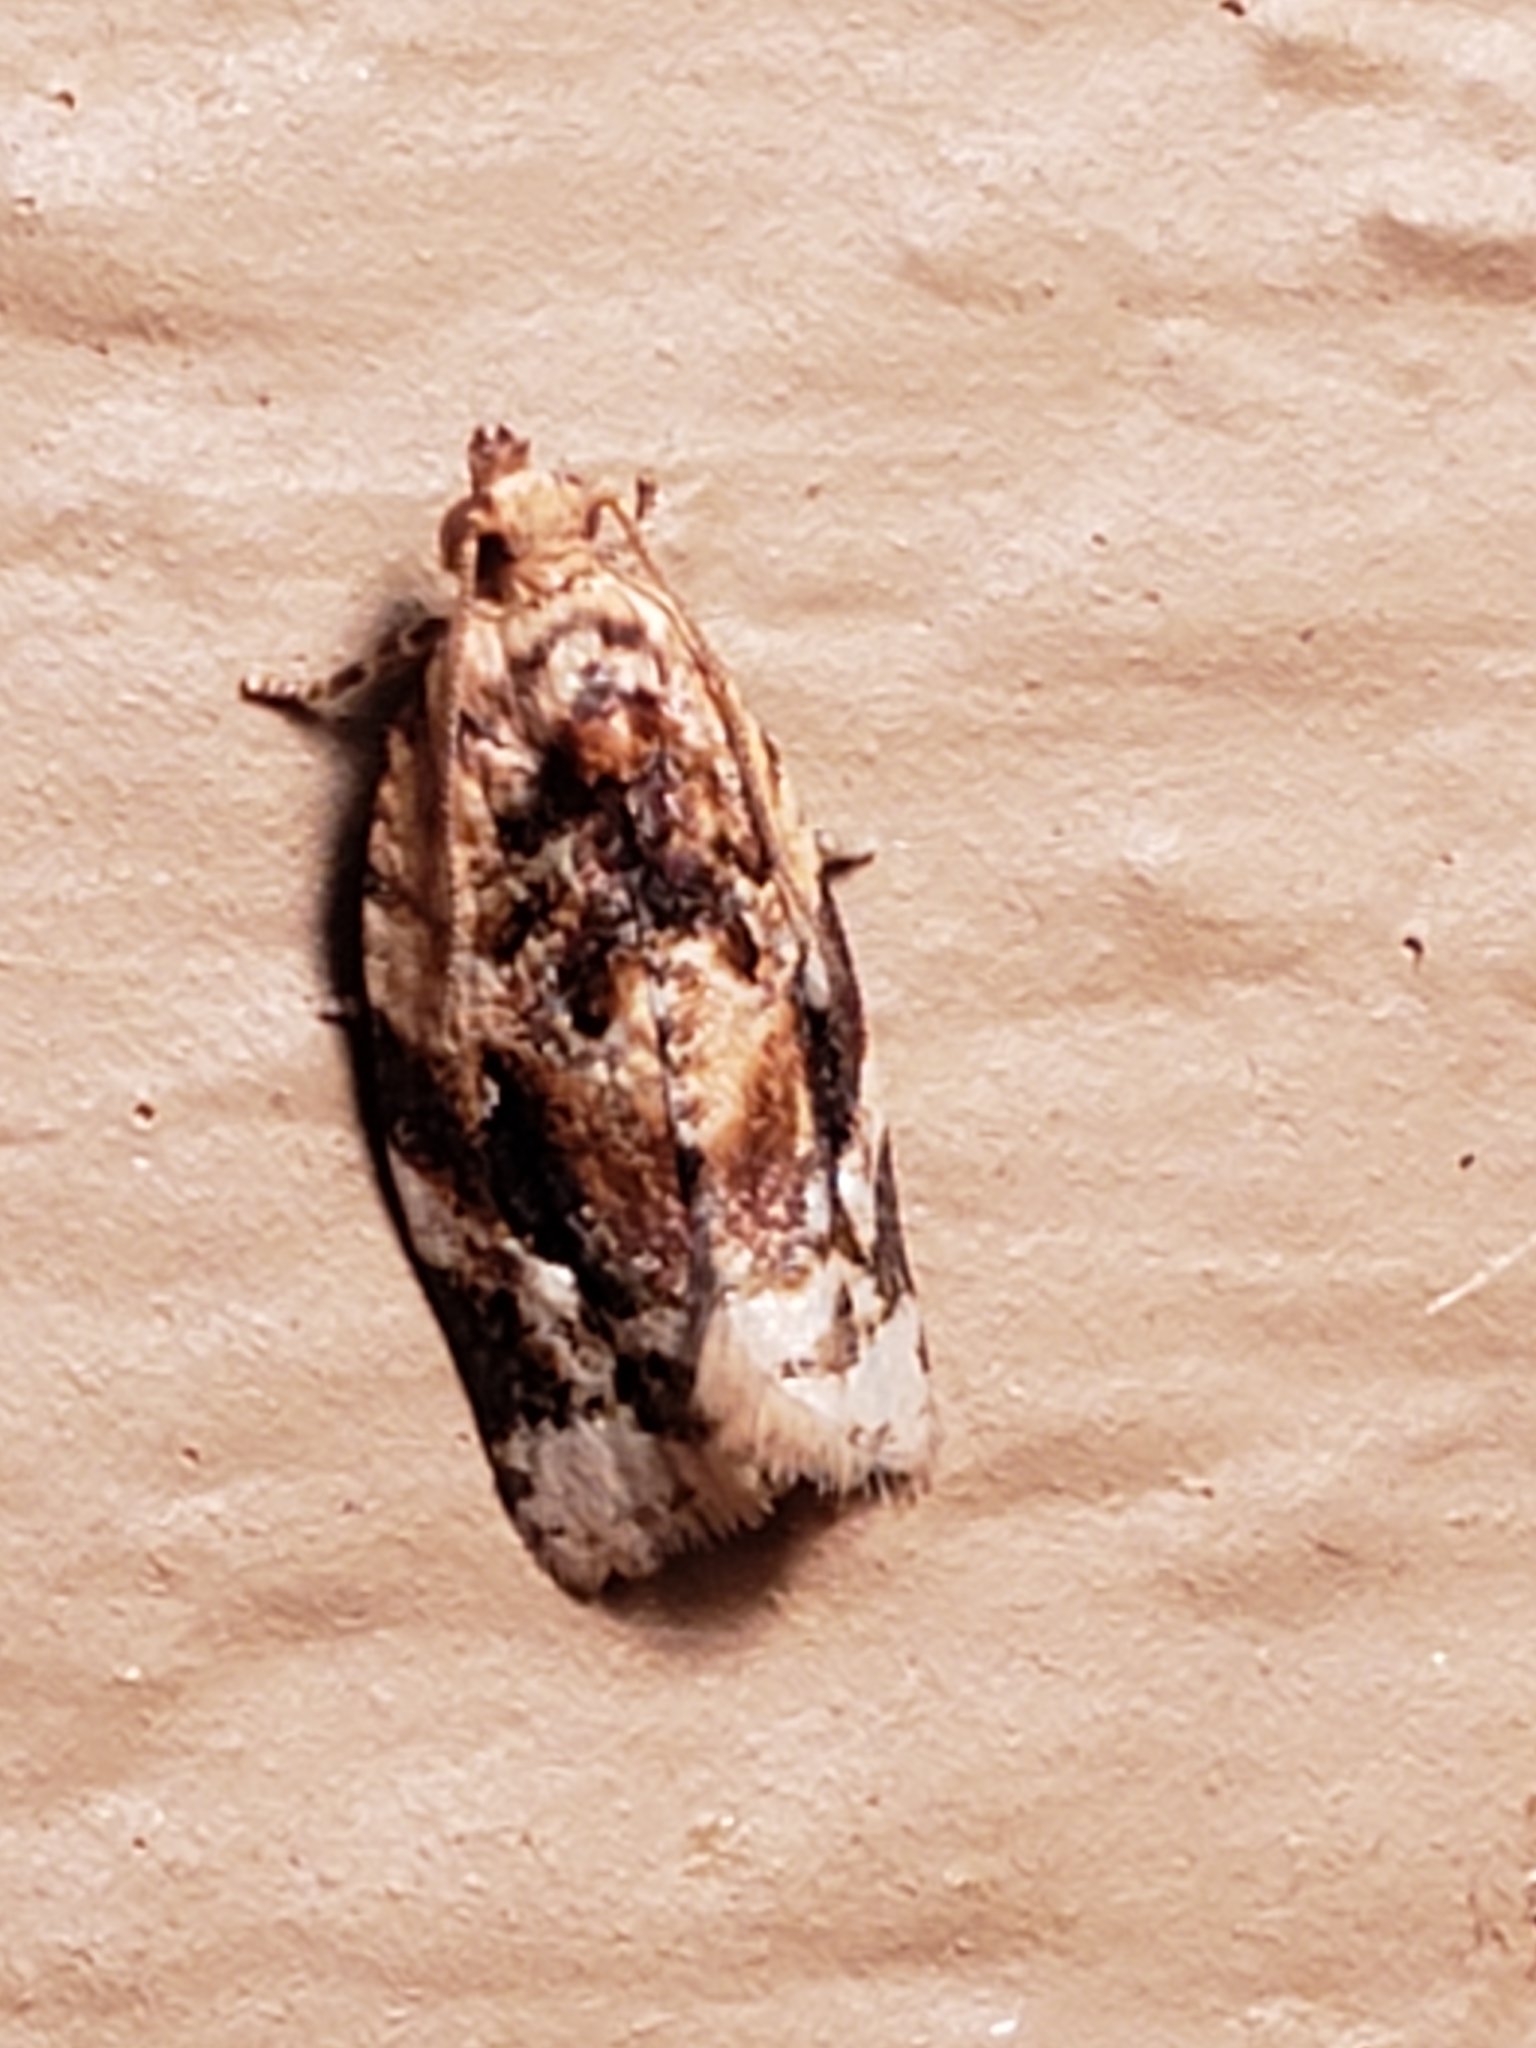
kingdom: Animalia
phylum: Arthropoda
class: Insecta
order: Lepidoptera
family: Tortricidae
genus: Argyrotaenia
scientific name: Argyrotaenia velutinana
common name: Red-banded leafroller moth
